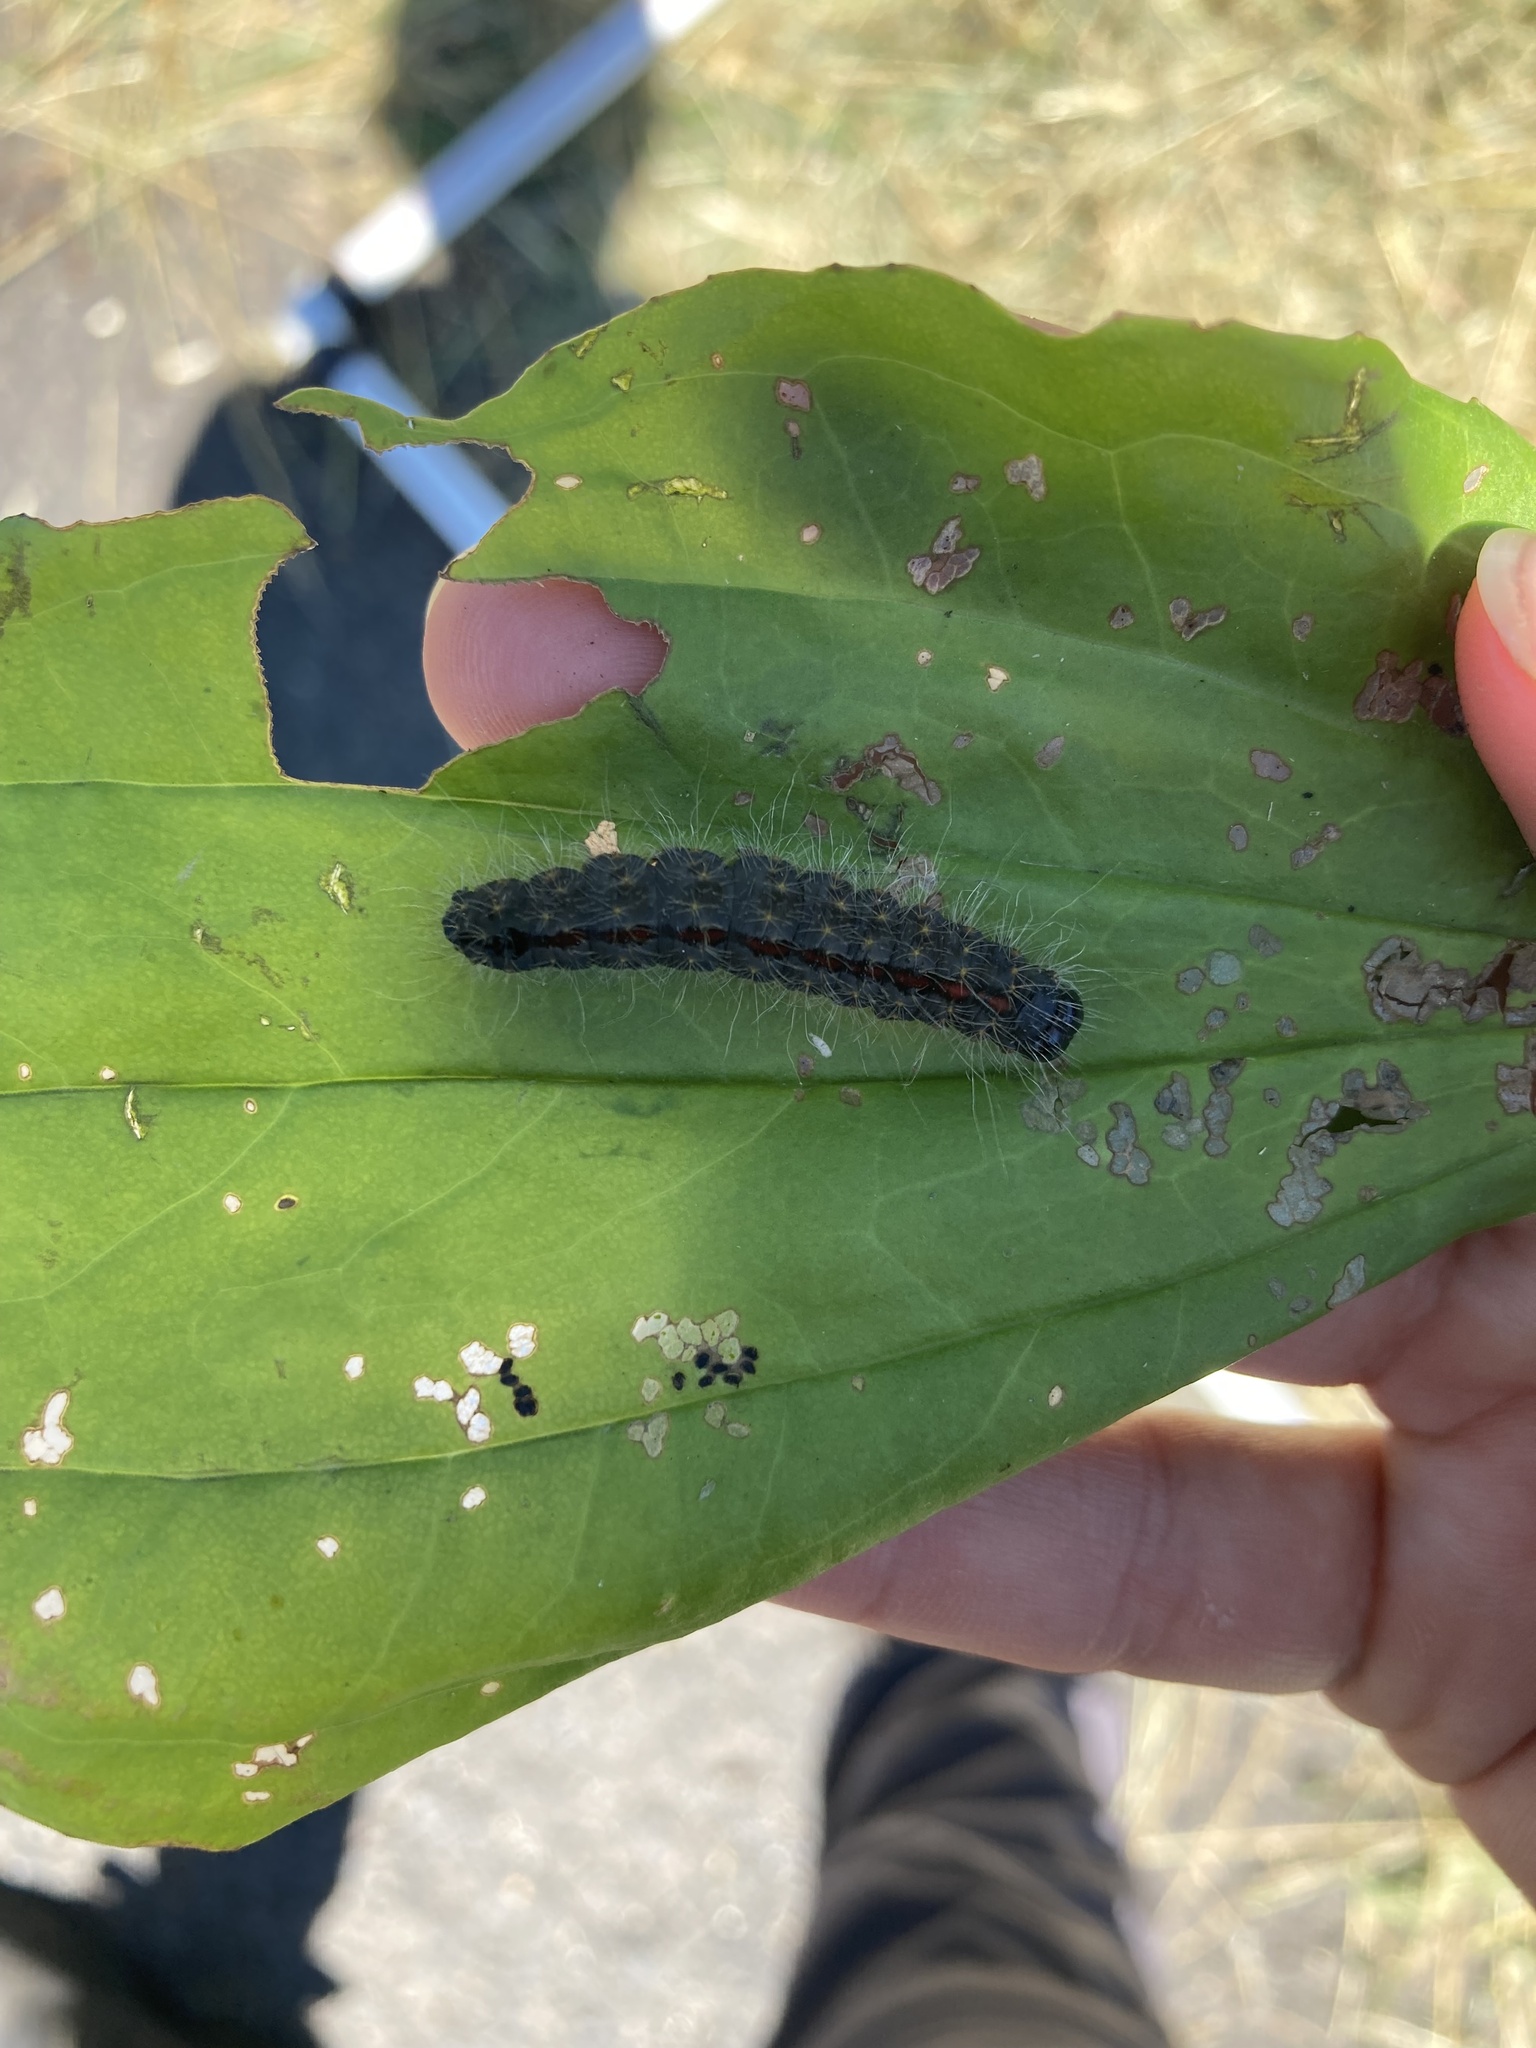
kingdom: Animalia
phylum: Arthropoda
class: Insecta
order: Lepidoptera
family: Noctuidae
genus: Acronicta
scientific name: Acronicta hasta
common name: Cherry dagger
